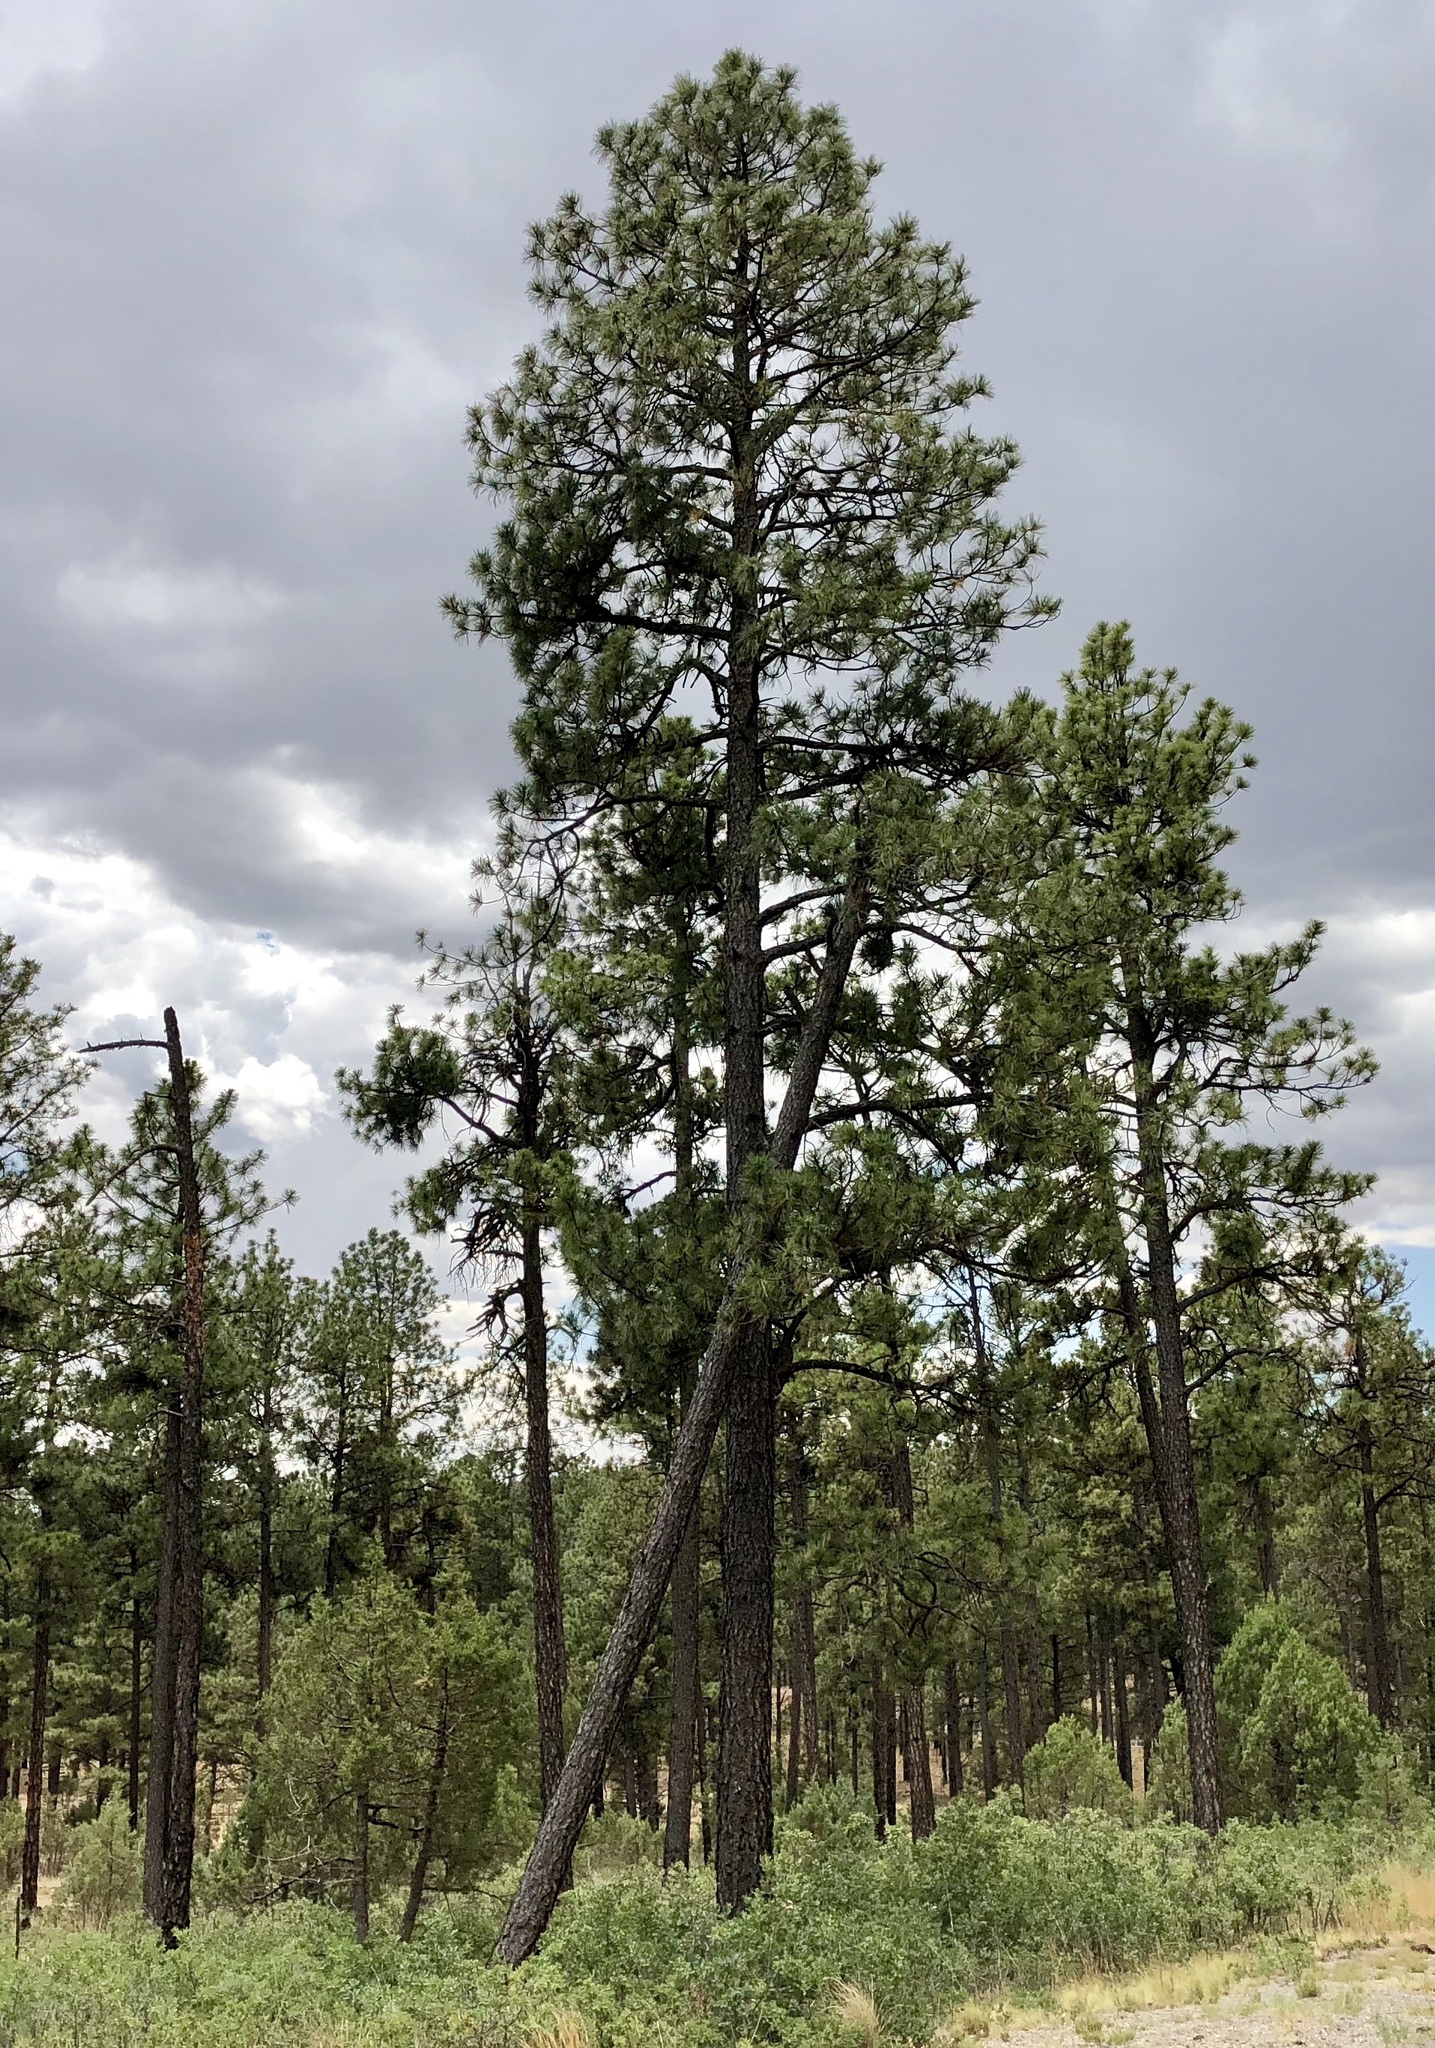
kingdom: Plantae
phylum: Tracheophyta
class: Pinopsida
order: Pinales
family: Pinaceae
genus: Pinus
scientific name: Pinus ponderosa
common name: Western yellow-pine
